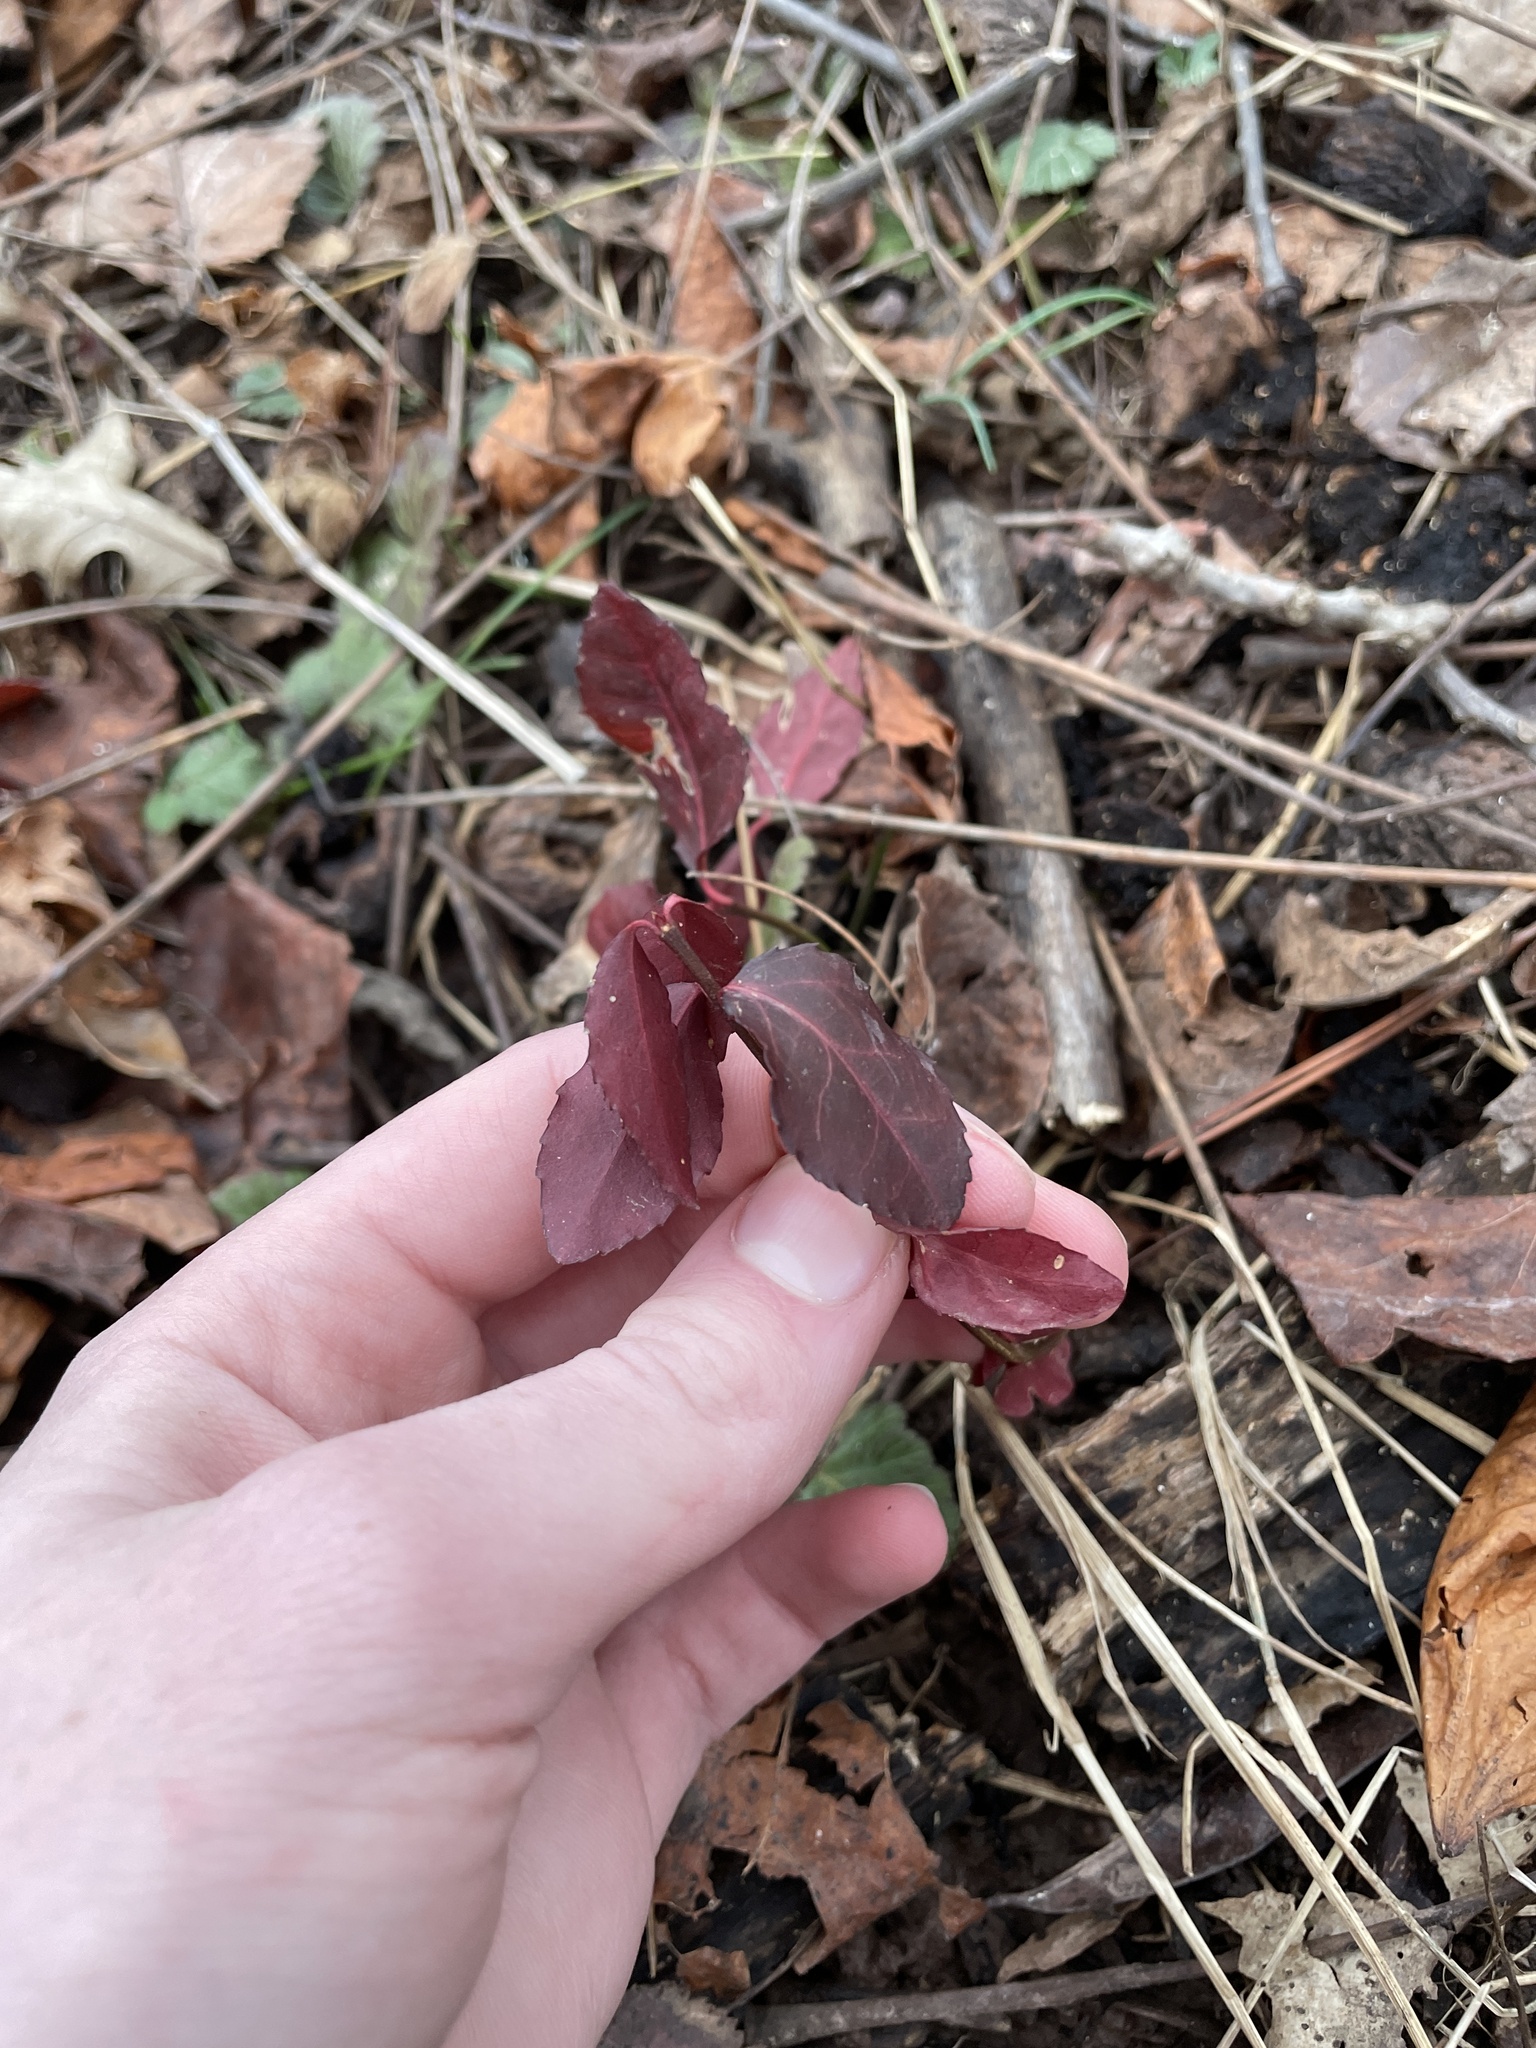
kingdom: Plantae
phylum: Tracheophyta
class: Magnoliopsida
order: Celastrales
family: Celastraceae
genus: Euonymus
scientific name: Euonymus fortunei
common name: Climbing euonymus
